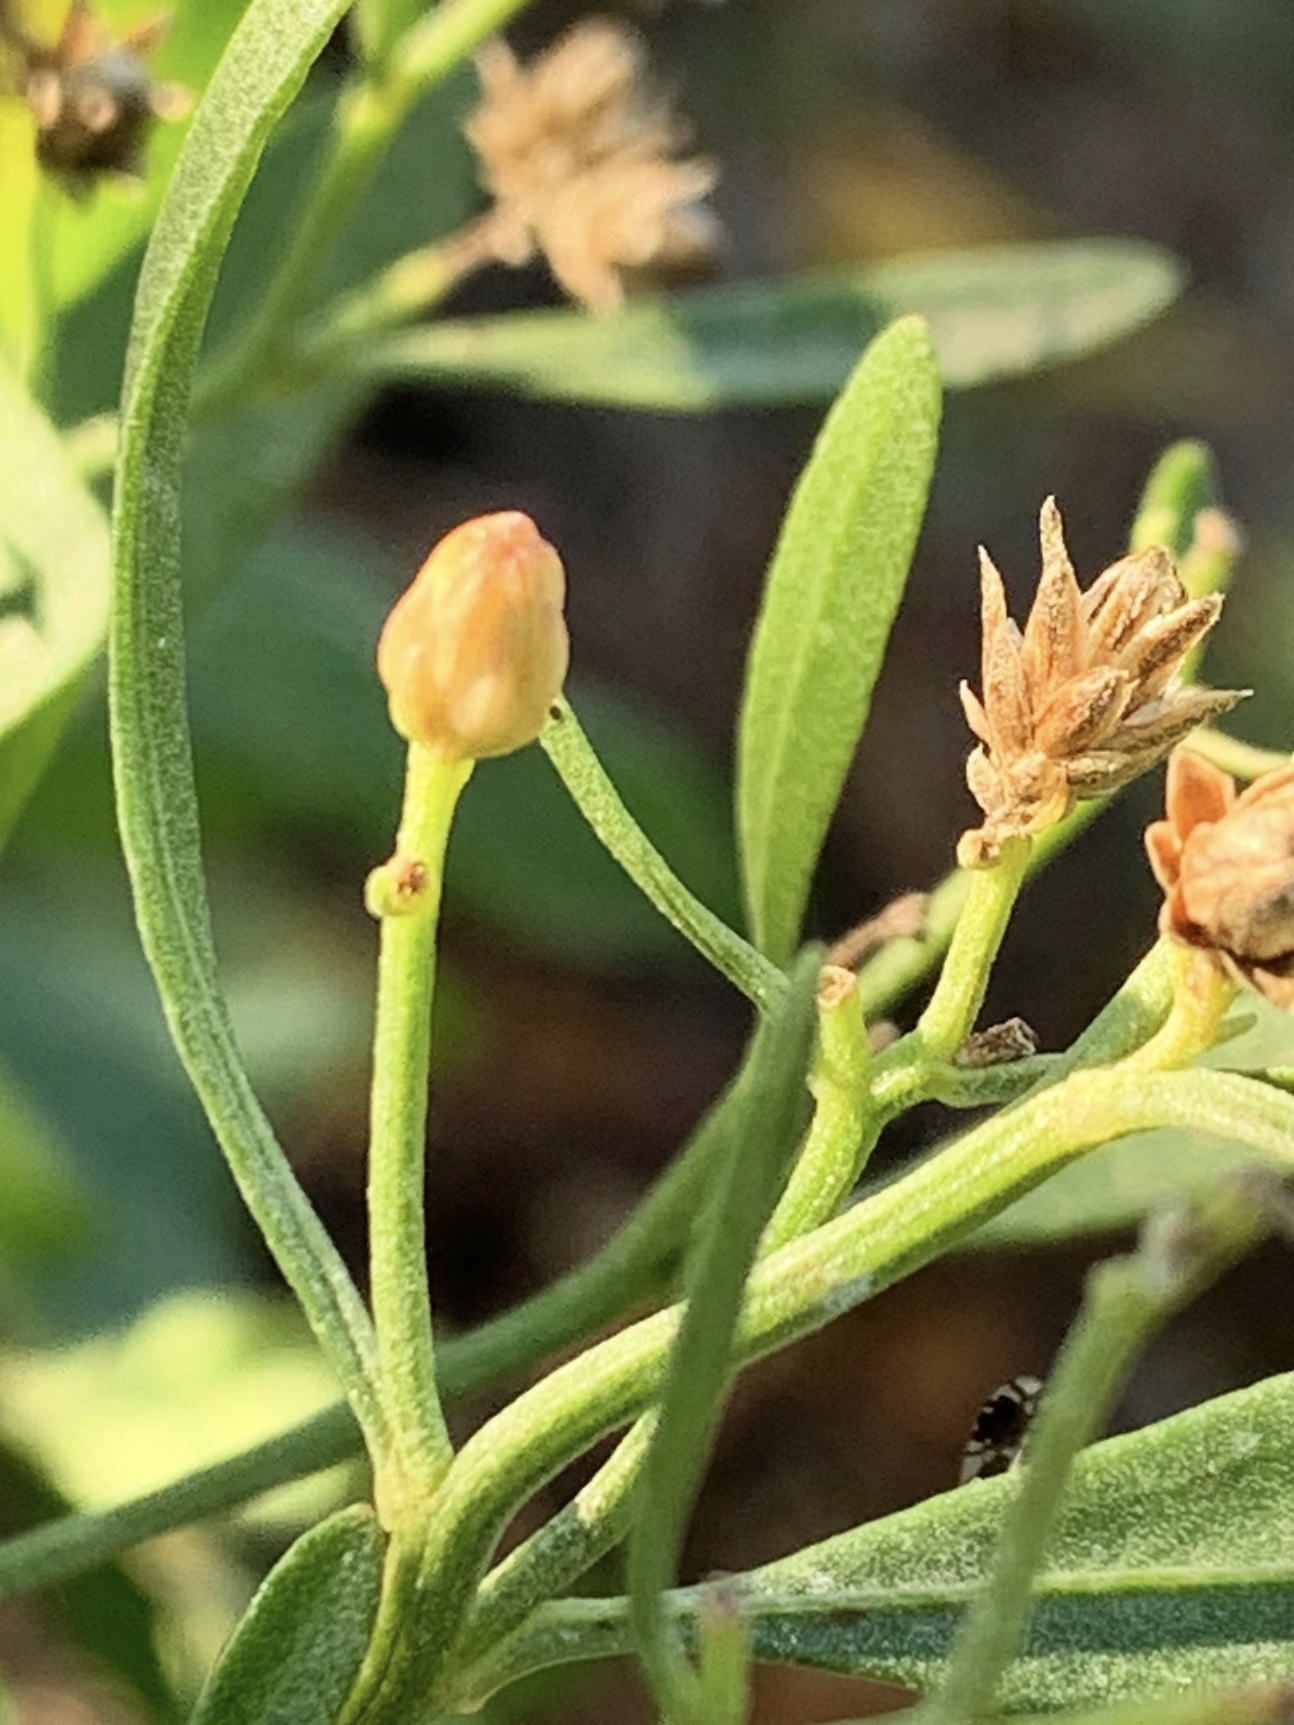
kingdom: Plantae
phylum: Tracheophyta
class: Magnoliopsida
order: Asterales
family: Asteraceae
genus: Baccharis
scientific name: Baccharis halimifolia
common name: Eastern baccharis
